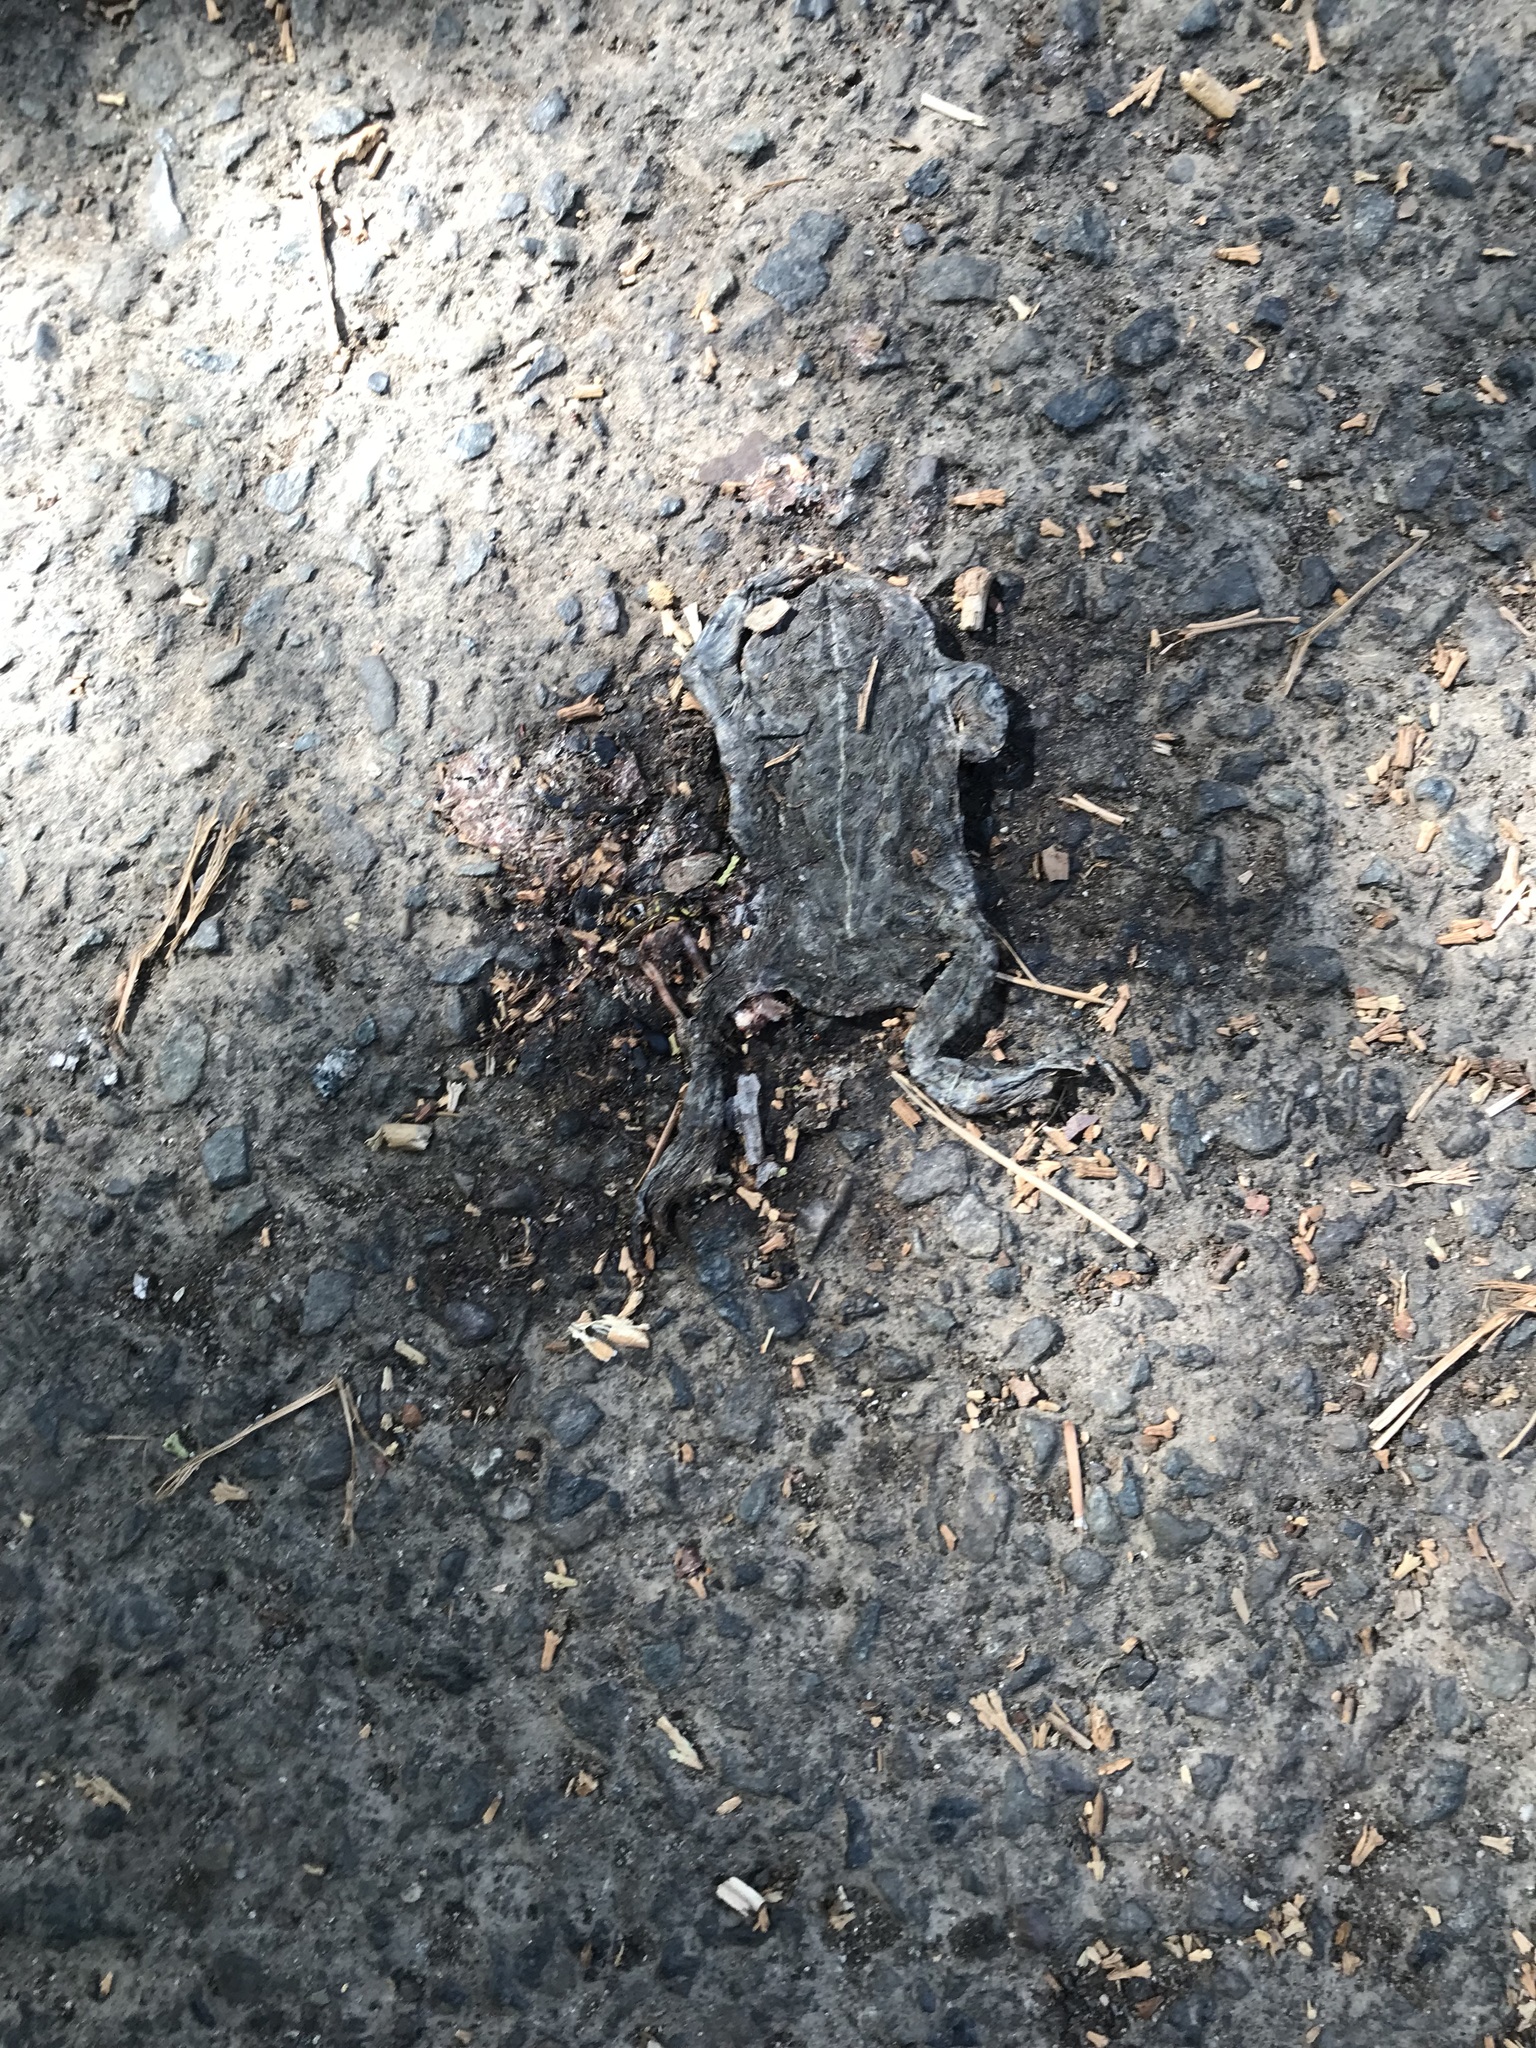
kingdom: Animalia
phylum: Chordata
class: Amphibia
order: Anura
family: Bufonidae
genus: Anaxyrus
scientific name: Anaxyrus boreas
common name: Western toad
